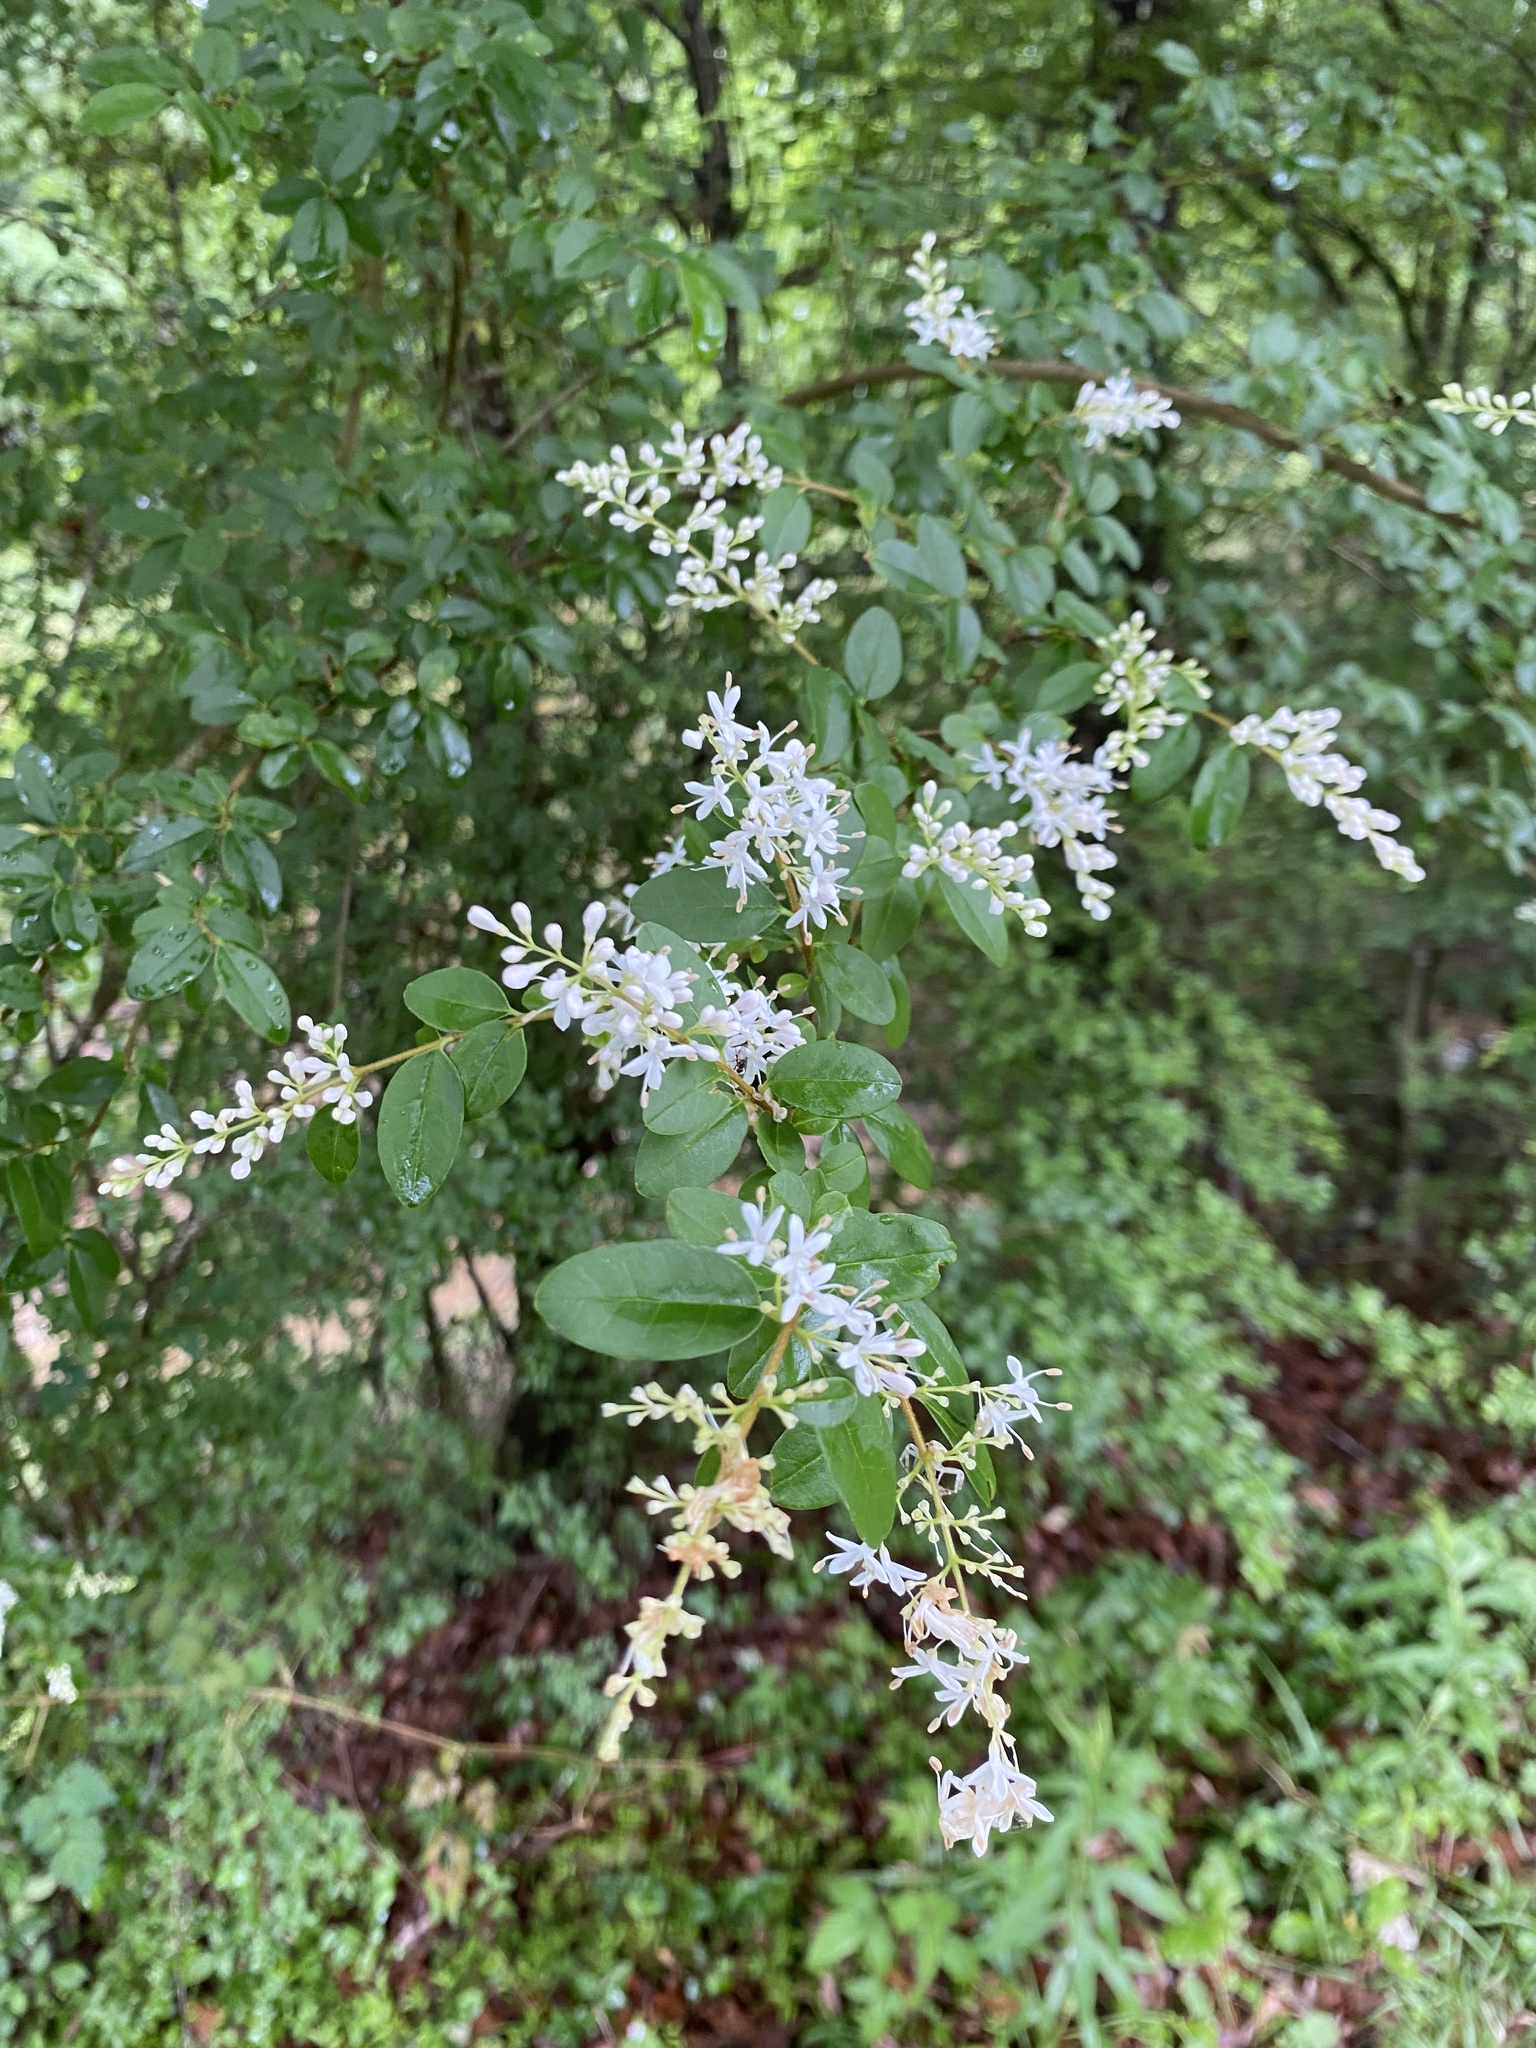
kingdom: Plantae
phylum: Tracheophyta
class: Magnoliopsida
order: Lamiales
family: Oleaceae
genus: Ligustrum
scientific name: Ligustrum sinense
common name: Chinese privet
